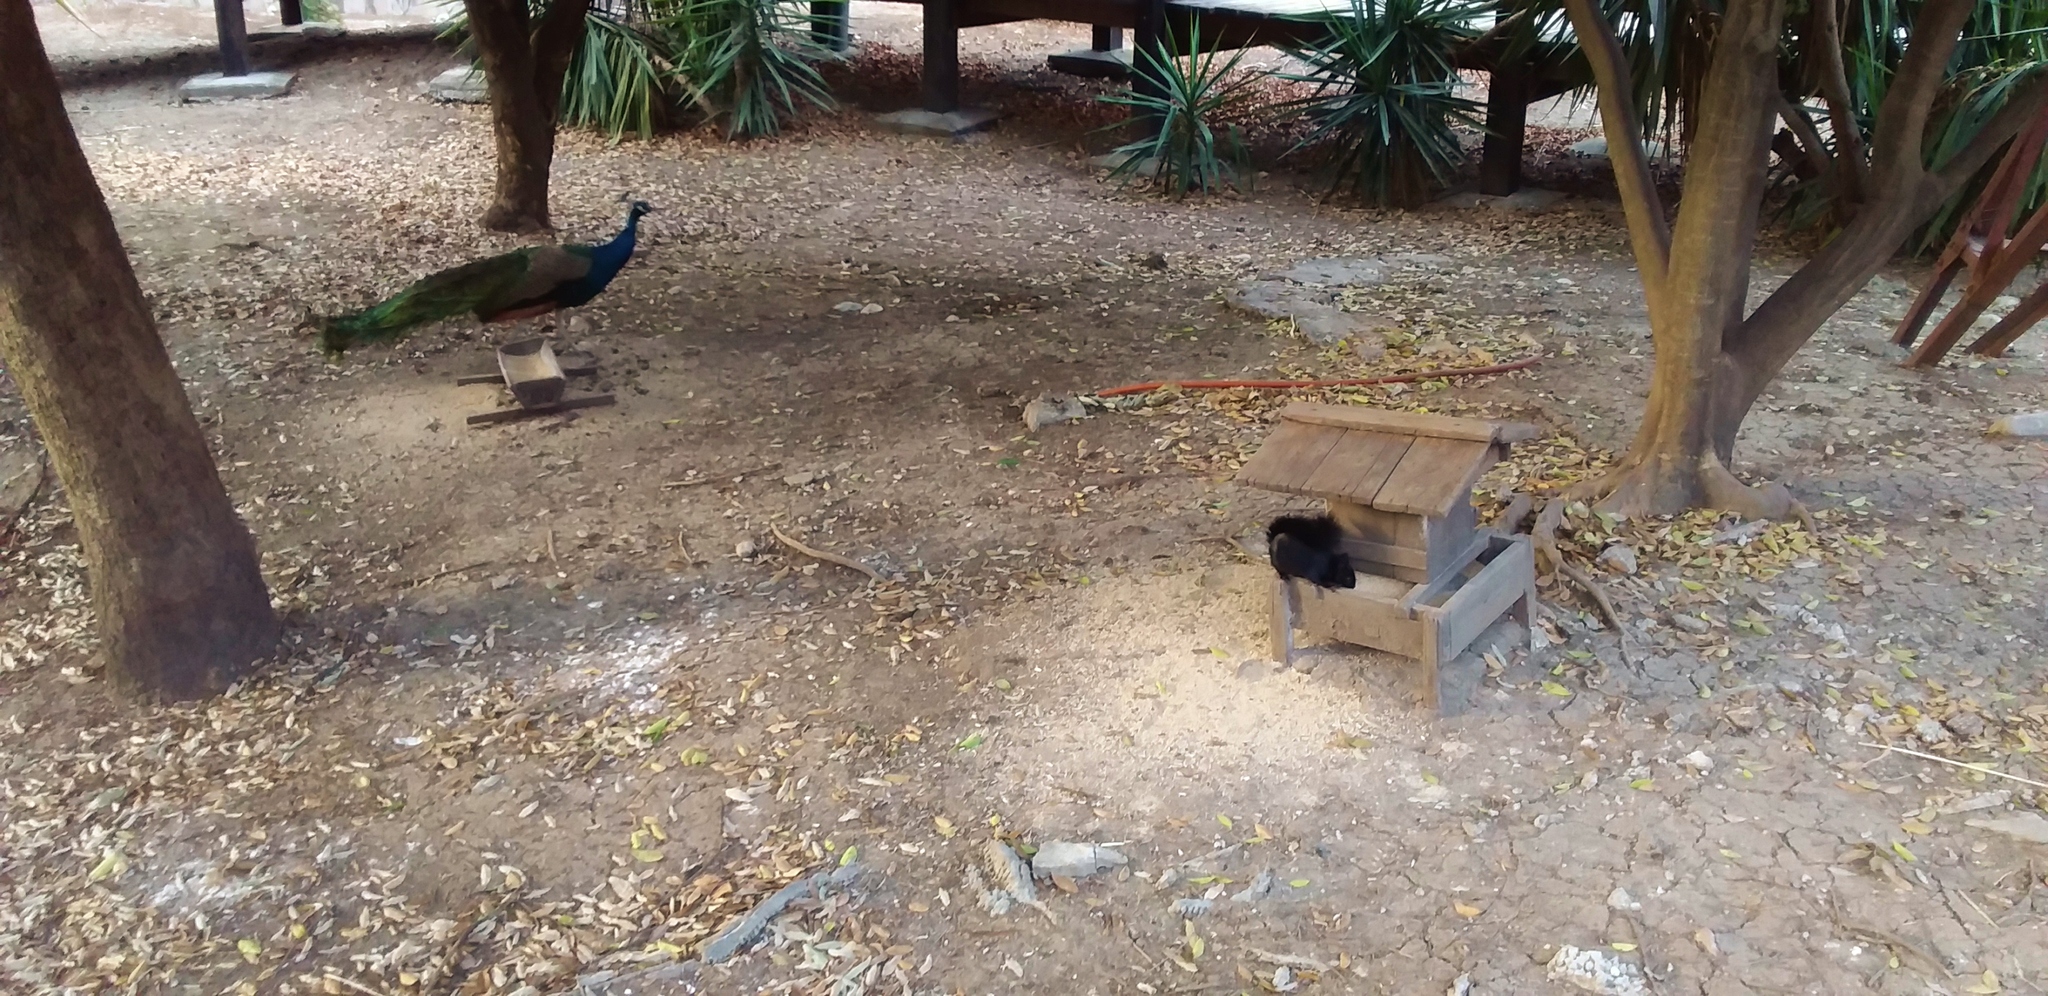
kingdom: Animalia
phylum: Chordata
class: Mammalia
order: Rodentia
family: Sciuridae
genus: Sciurus
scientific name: Sciurus aureogaster
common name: Red-bellied squirrel
